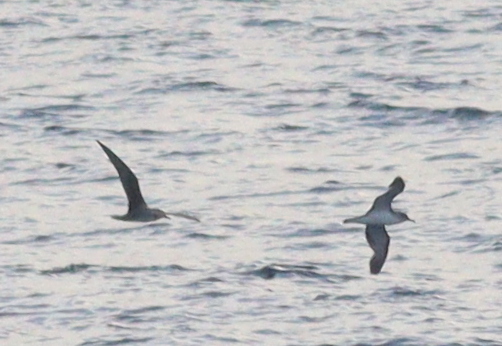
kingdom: Animalia
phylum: Chordata
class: Aves
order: Procellariiformes
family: Procellariidae
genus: Calonectris
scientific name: Calonectris diomedea
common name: Cory's shearwater
